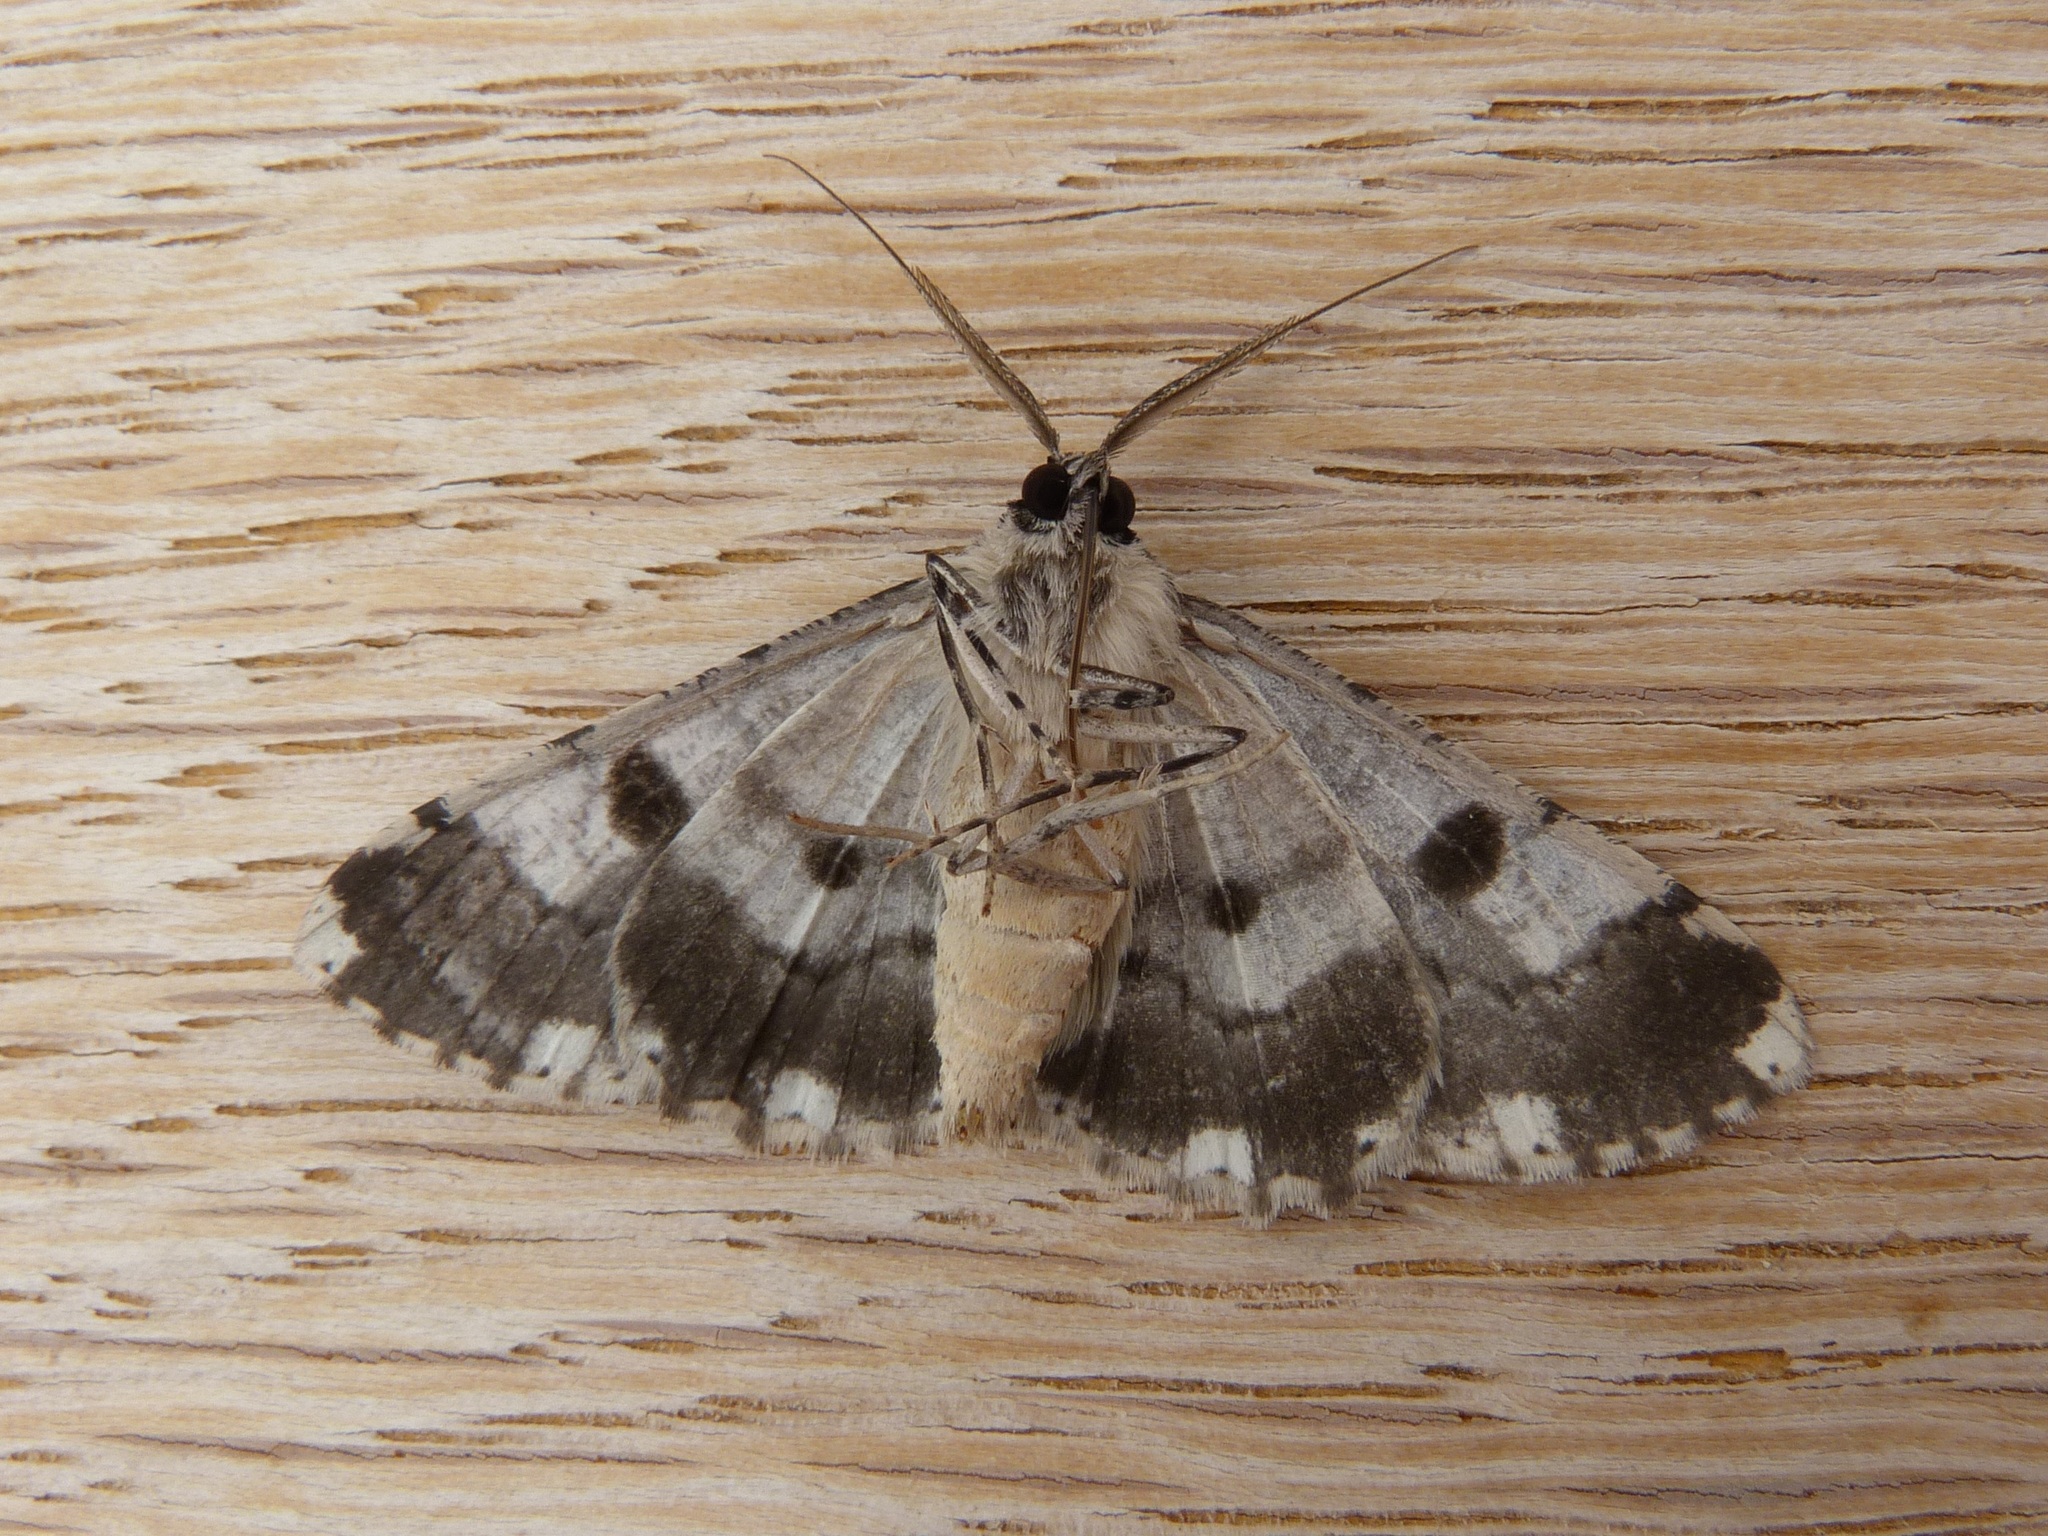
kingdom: Animalia
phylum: Arthropoda
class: Insecta
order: Lepidoptera
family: Geometridae
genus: Cleora
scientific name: Cleora injectaria
